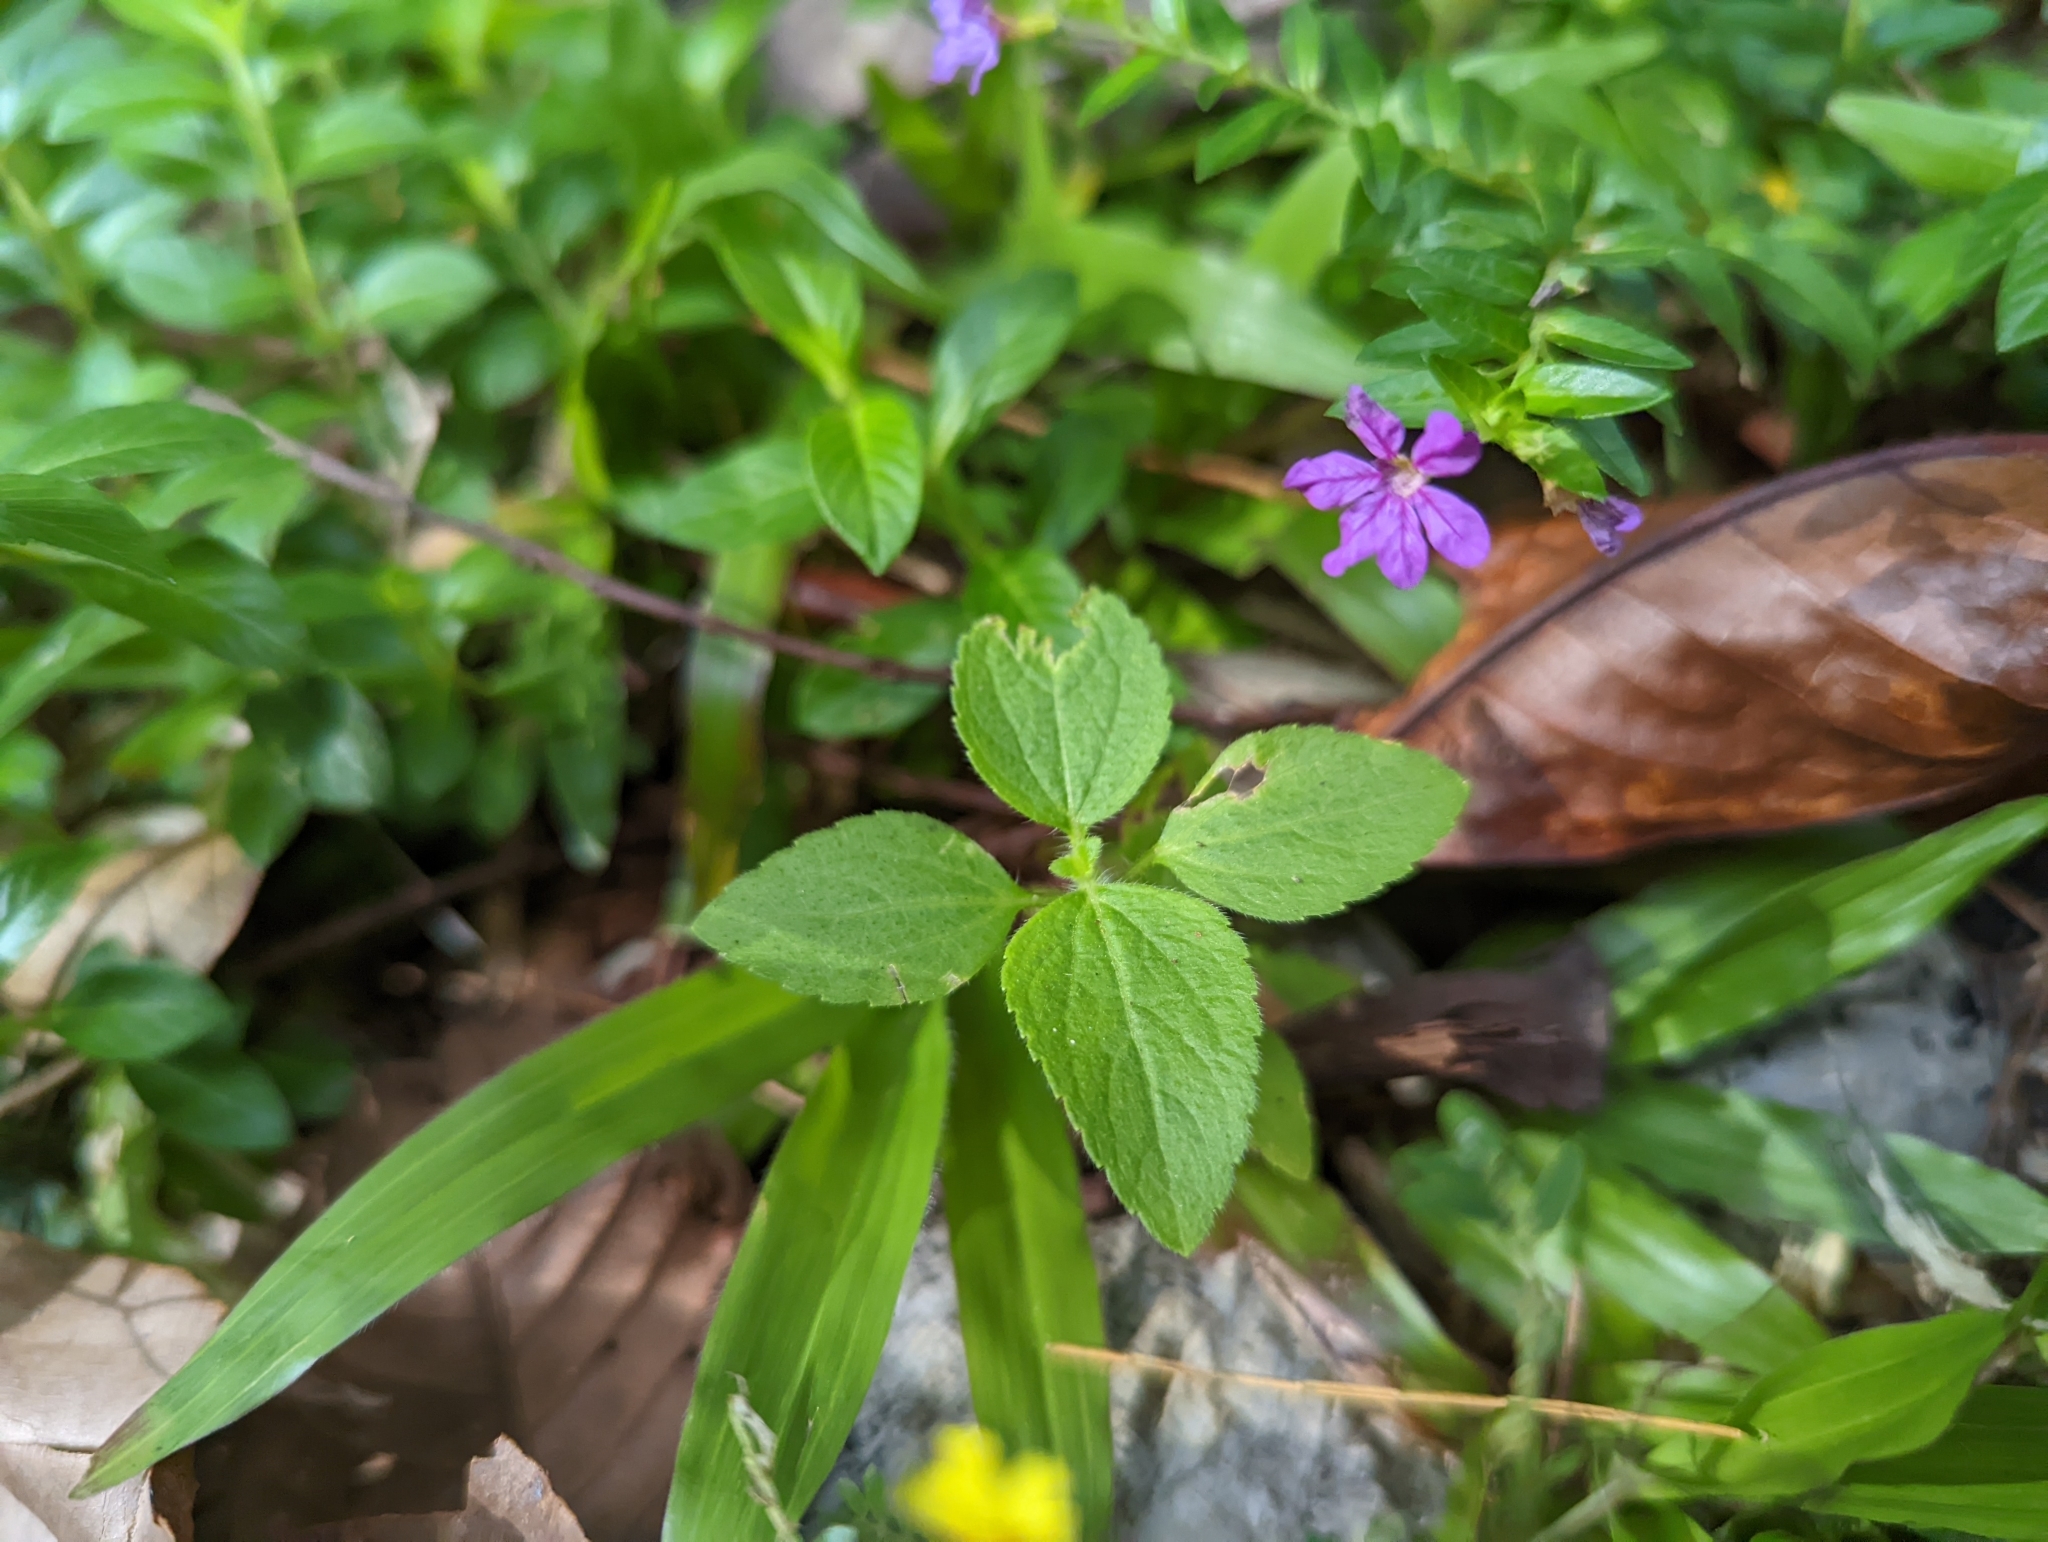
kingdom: Plantae
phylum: Tracheophyta
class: Magnoliopsida
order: Myrtales
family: Lythraceae
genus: Cuphea
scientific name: Cuphea hyssopifolia
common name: False heather
